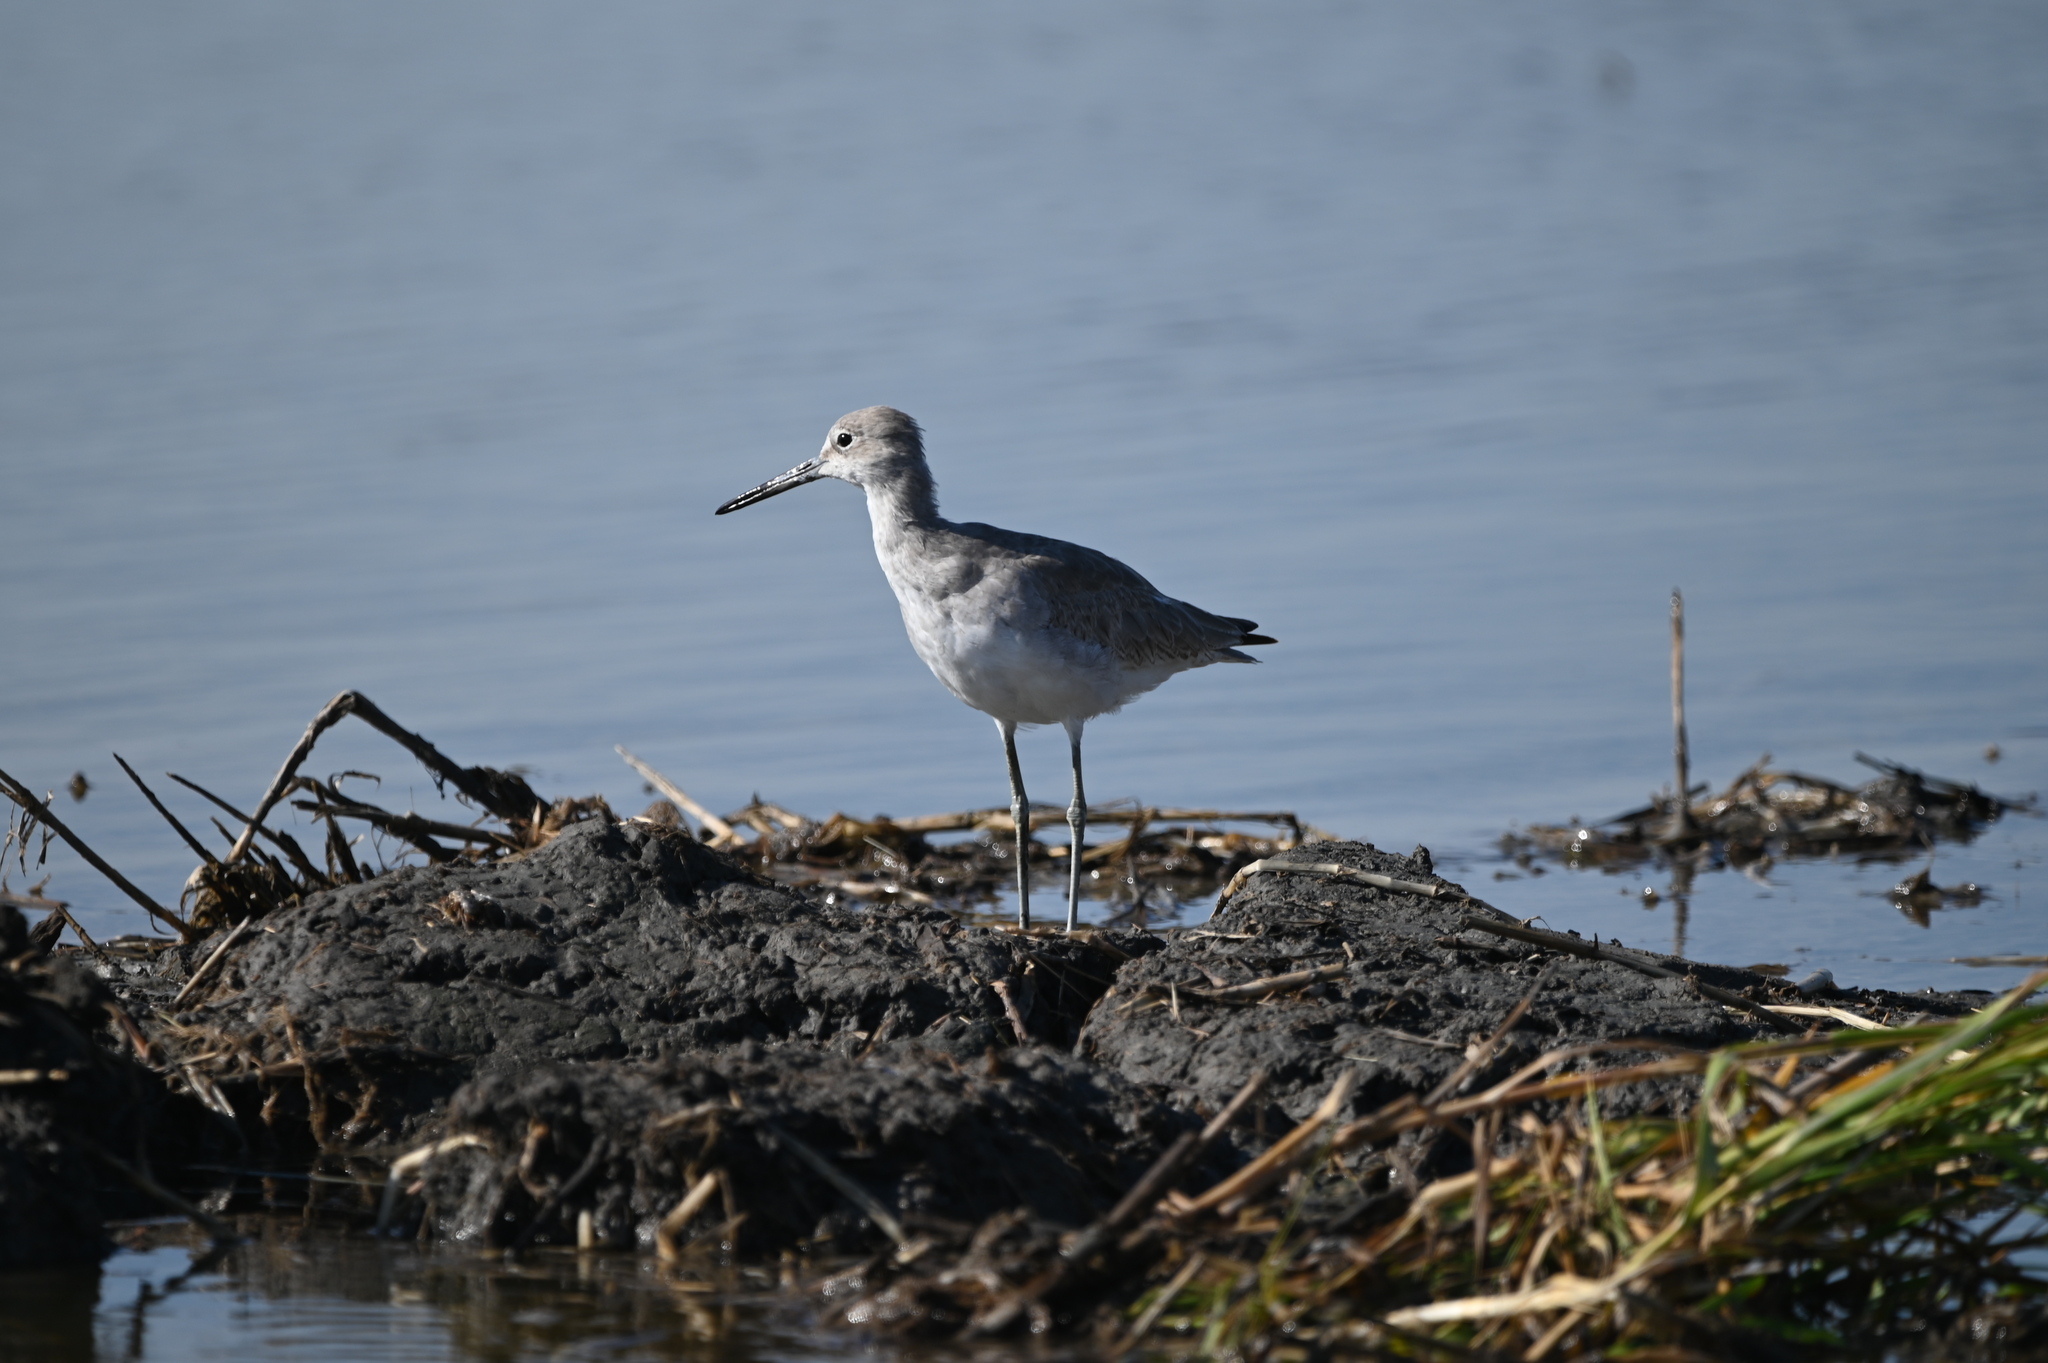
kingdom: Animalia
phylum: Chordata
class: Aves
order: Charadriiformes
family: Scolopacidae
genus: Tringa
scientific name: Tringa semipalmata
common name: Willet
